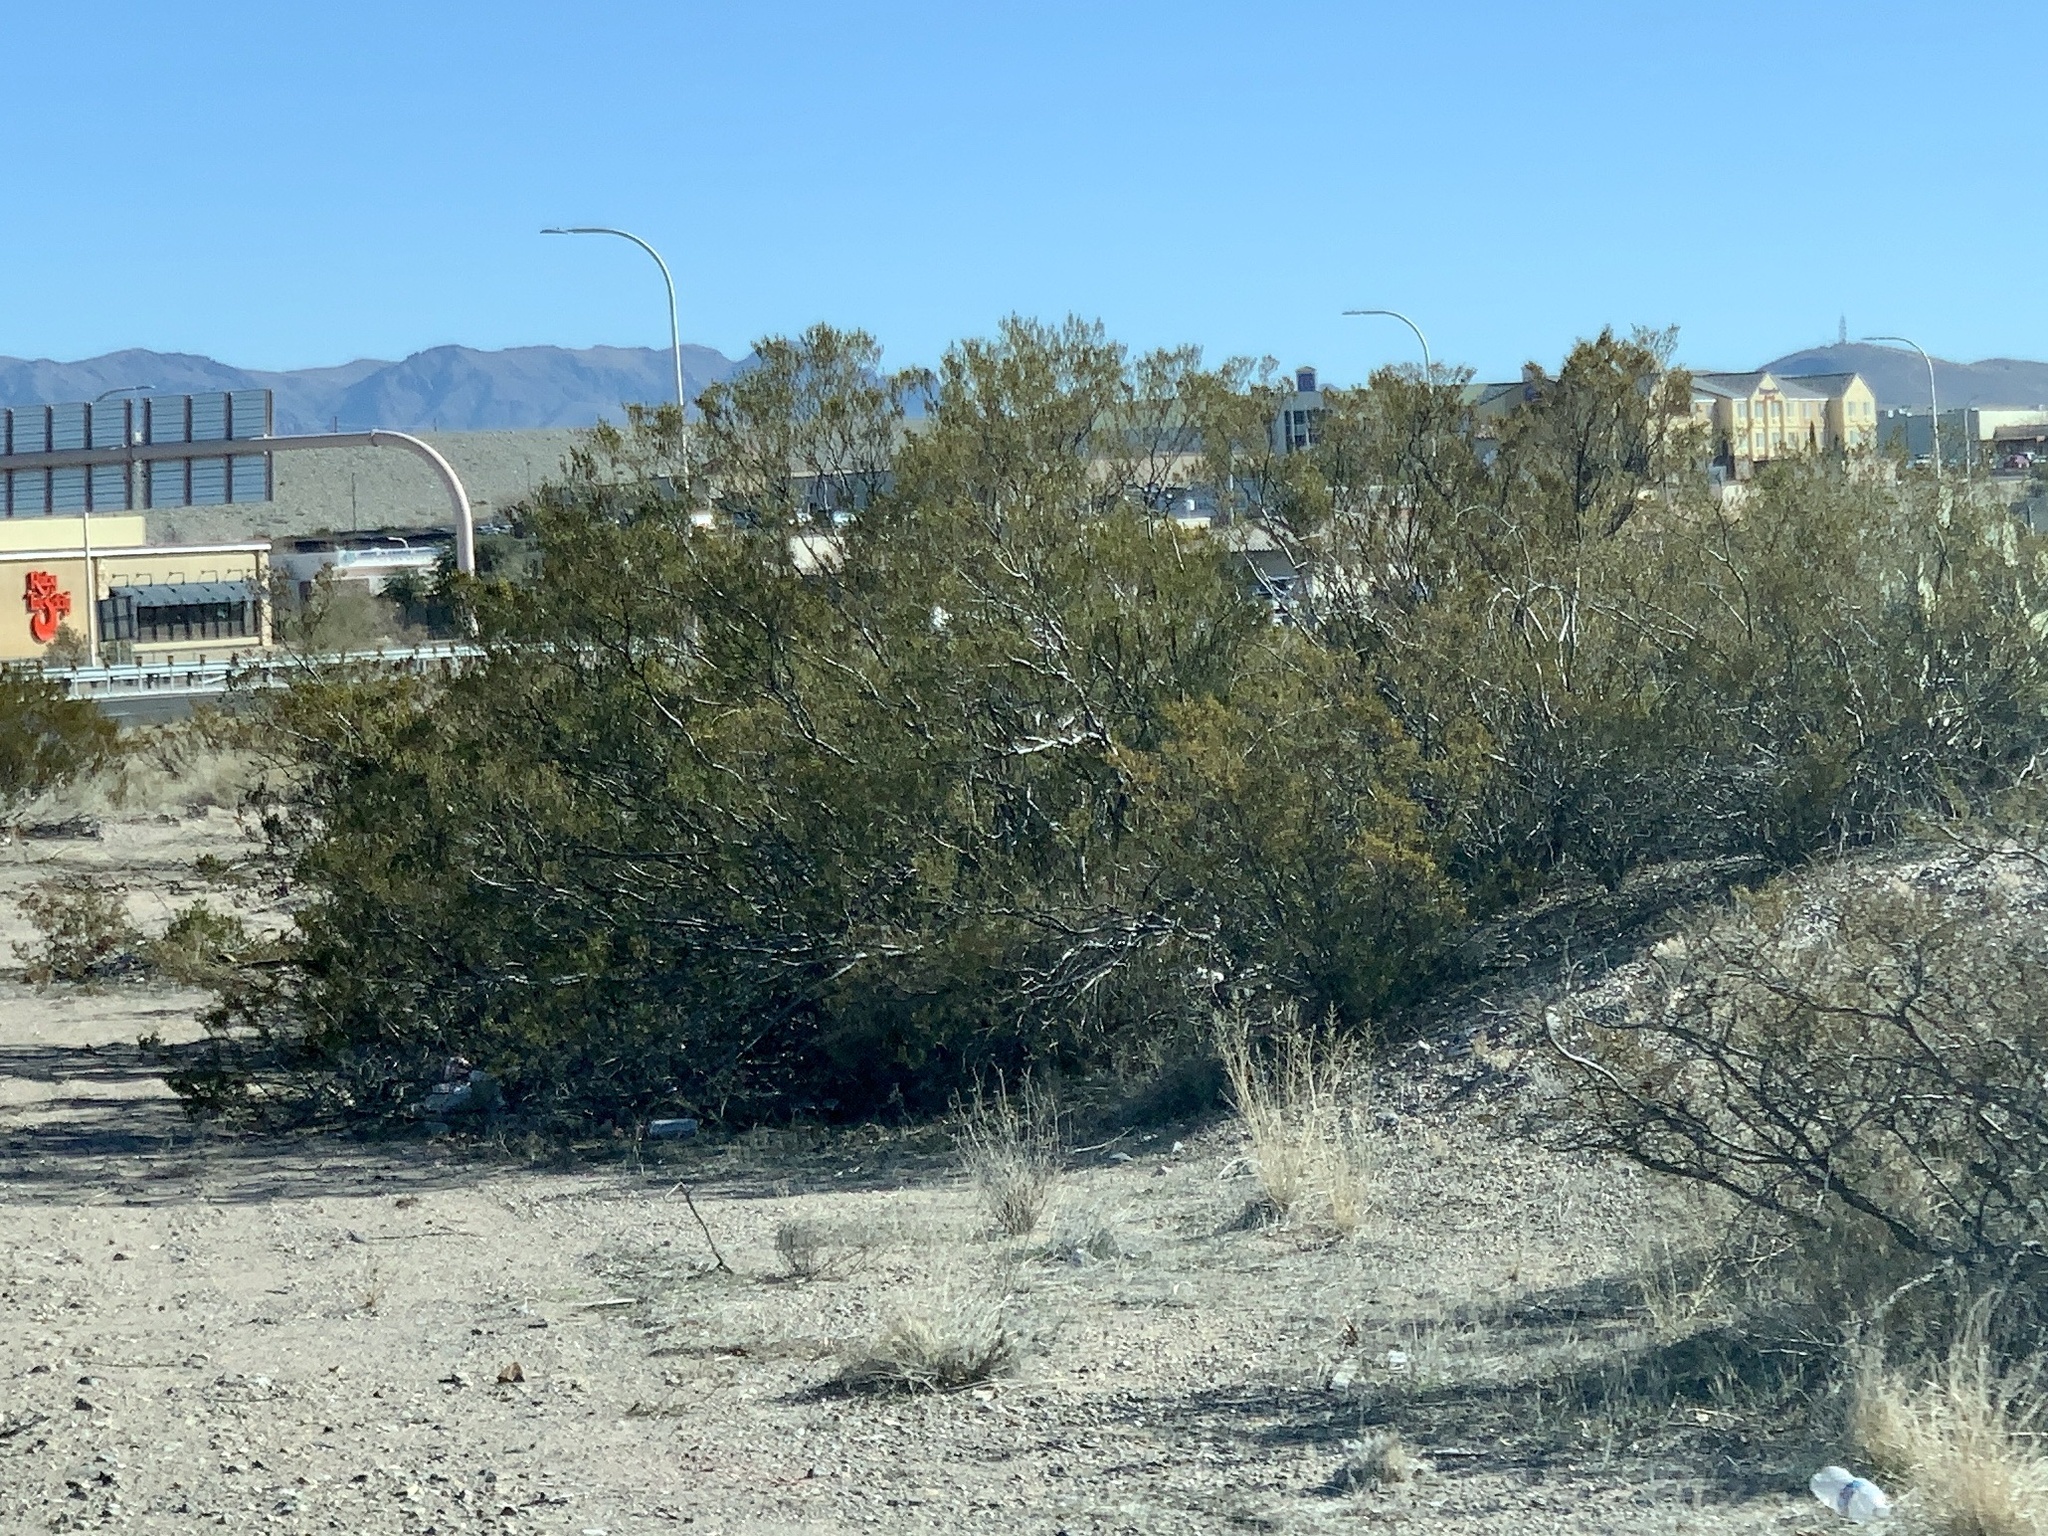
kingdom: Plantae
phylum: Tracheophyta
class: Magnoliopsida
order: Zygophyllales
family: Zygophyllaceae
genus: Larrea
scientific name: Larrea tridentata
